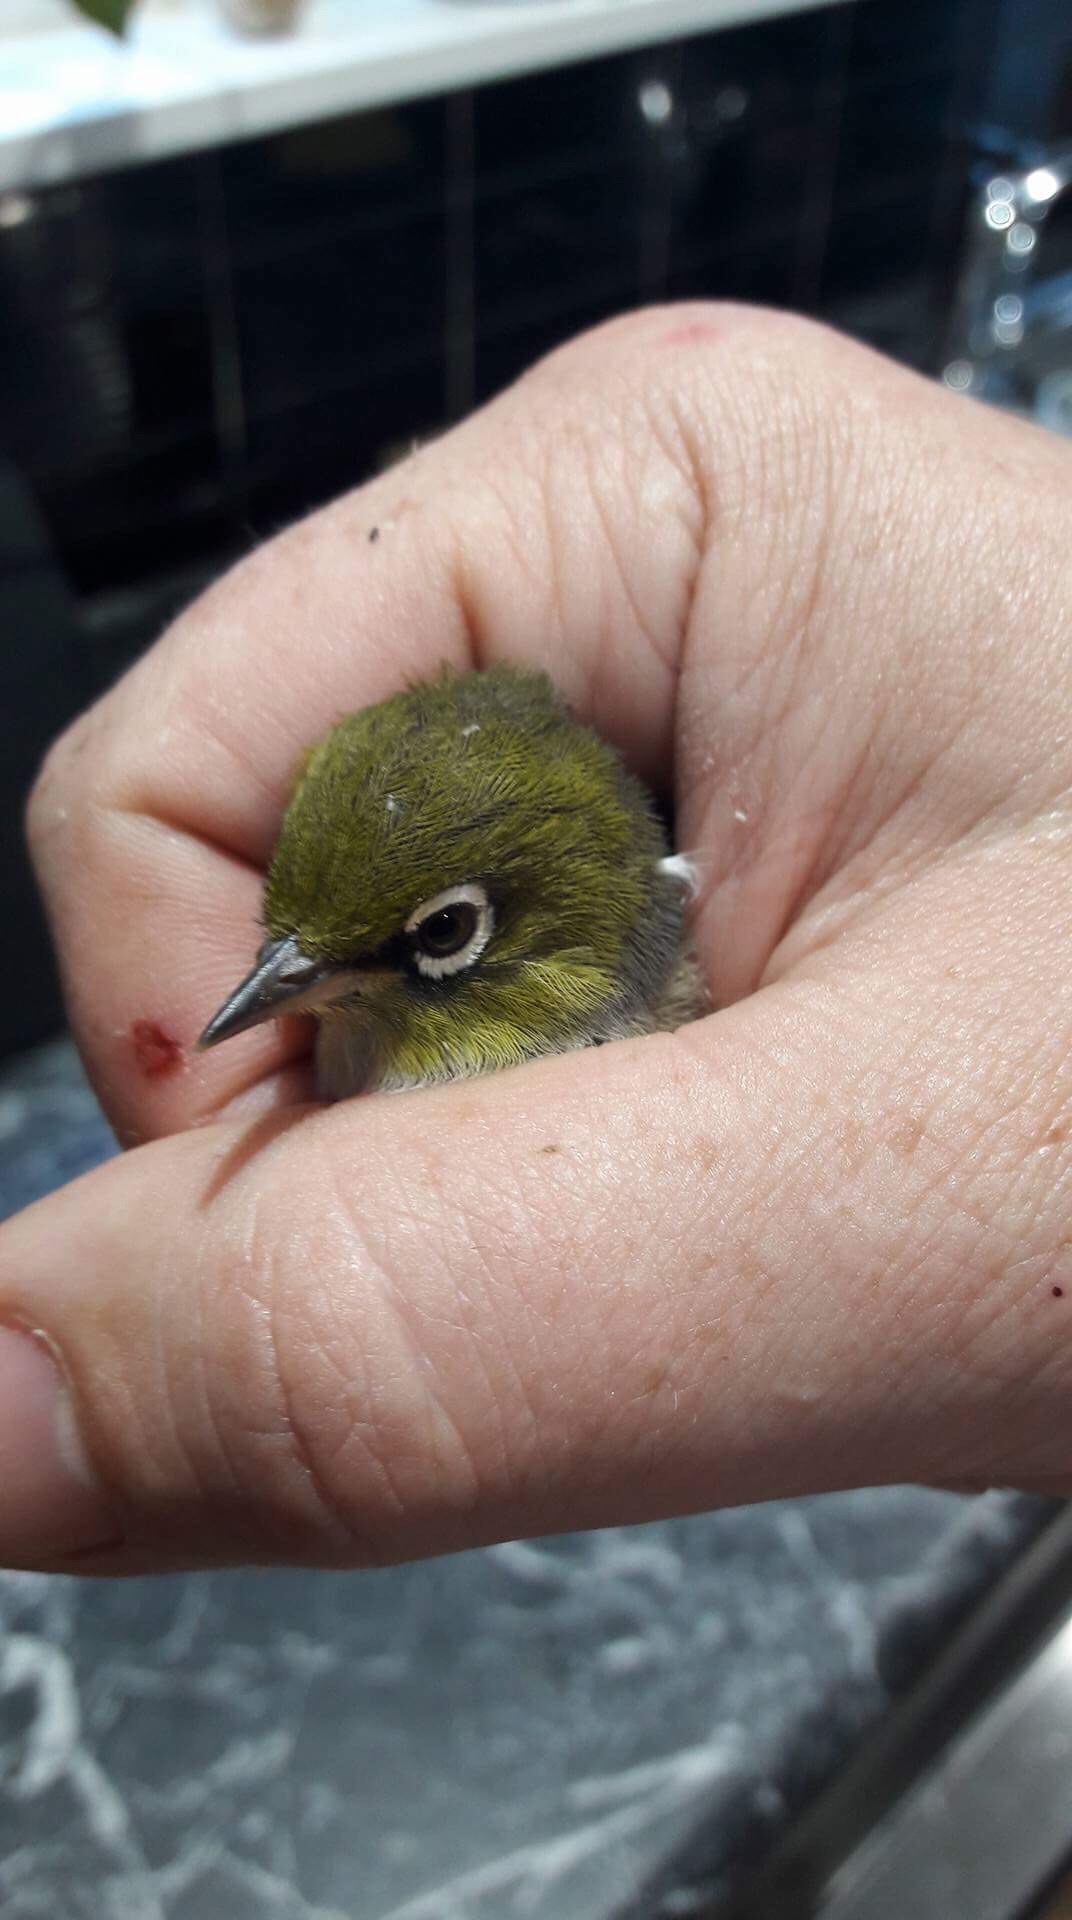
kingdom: Animalia
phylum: Chordata
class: Aves
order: Passeriformes
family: Zosteropidae
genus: Zosterops
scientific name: Zosterops lateralis
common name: Silvereye
